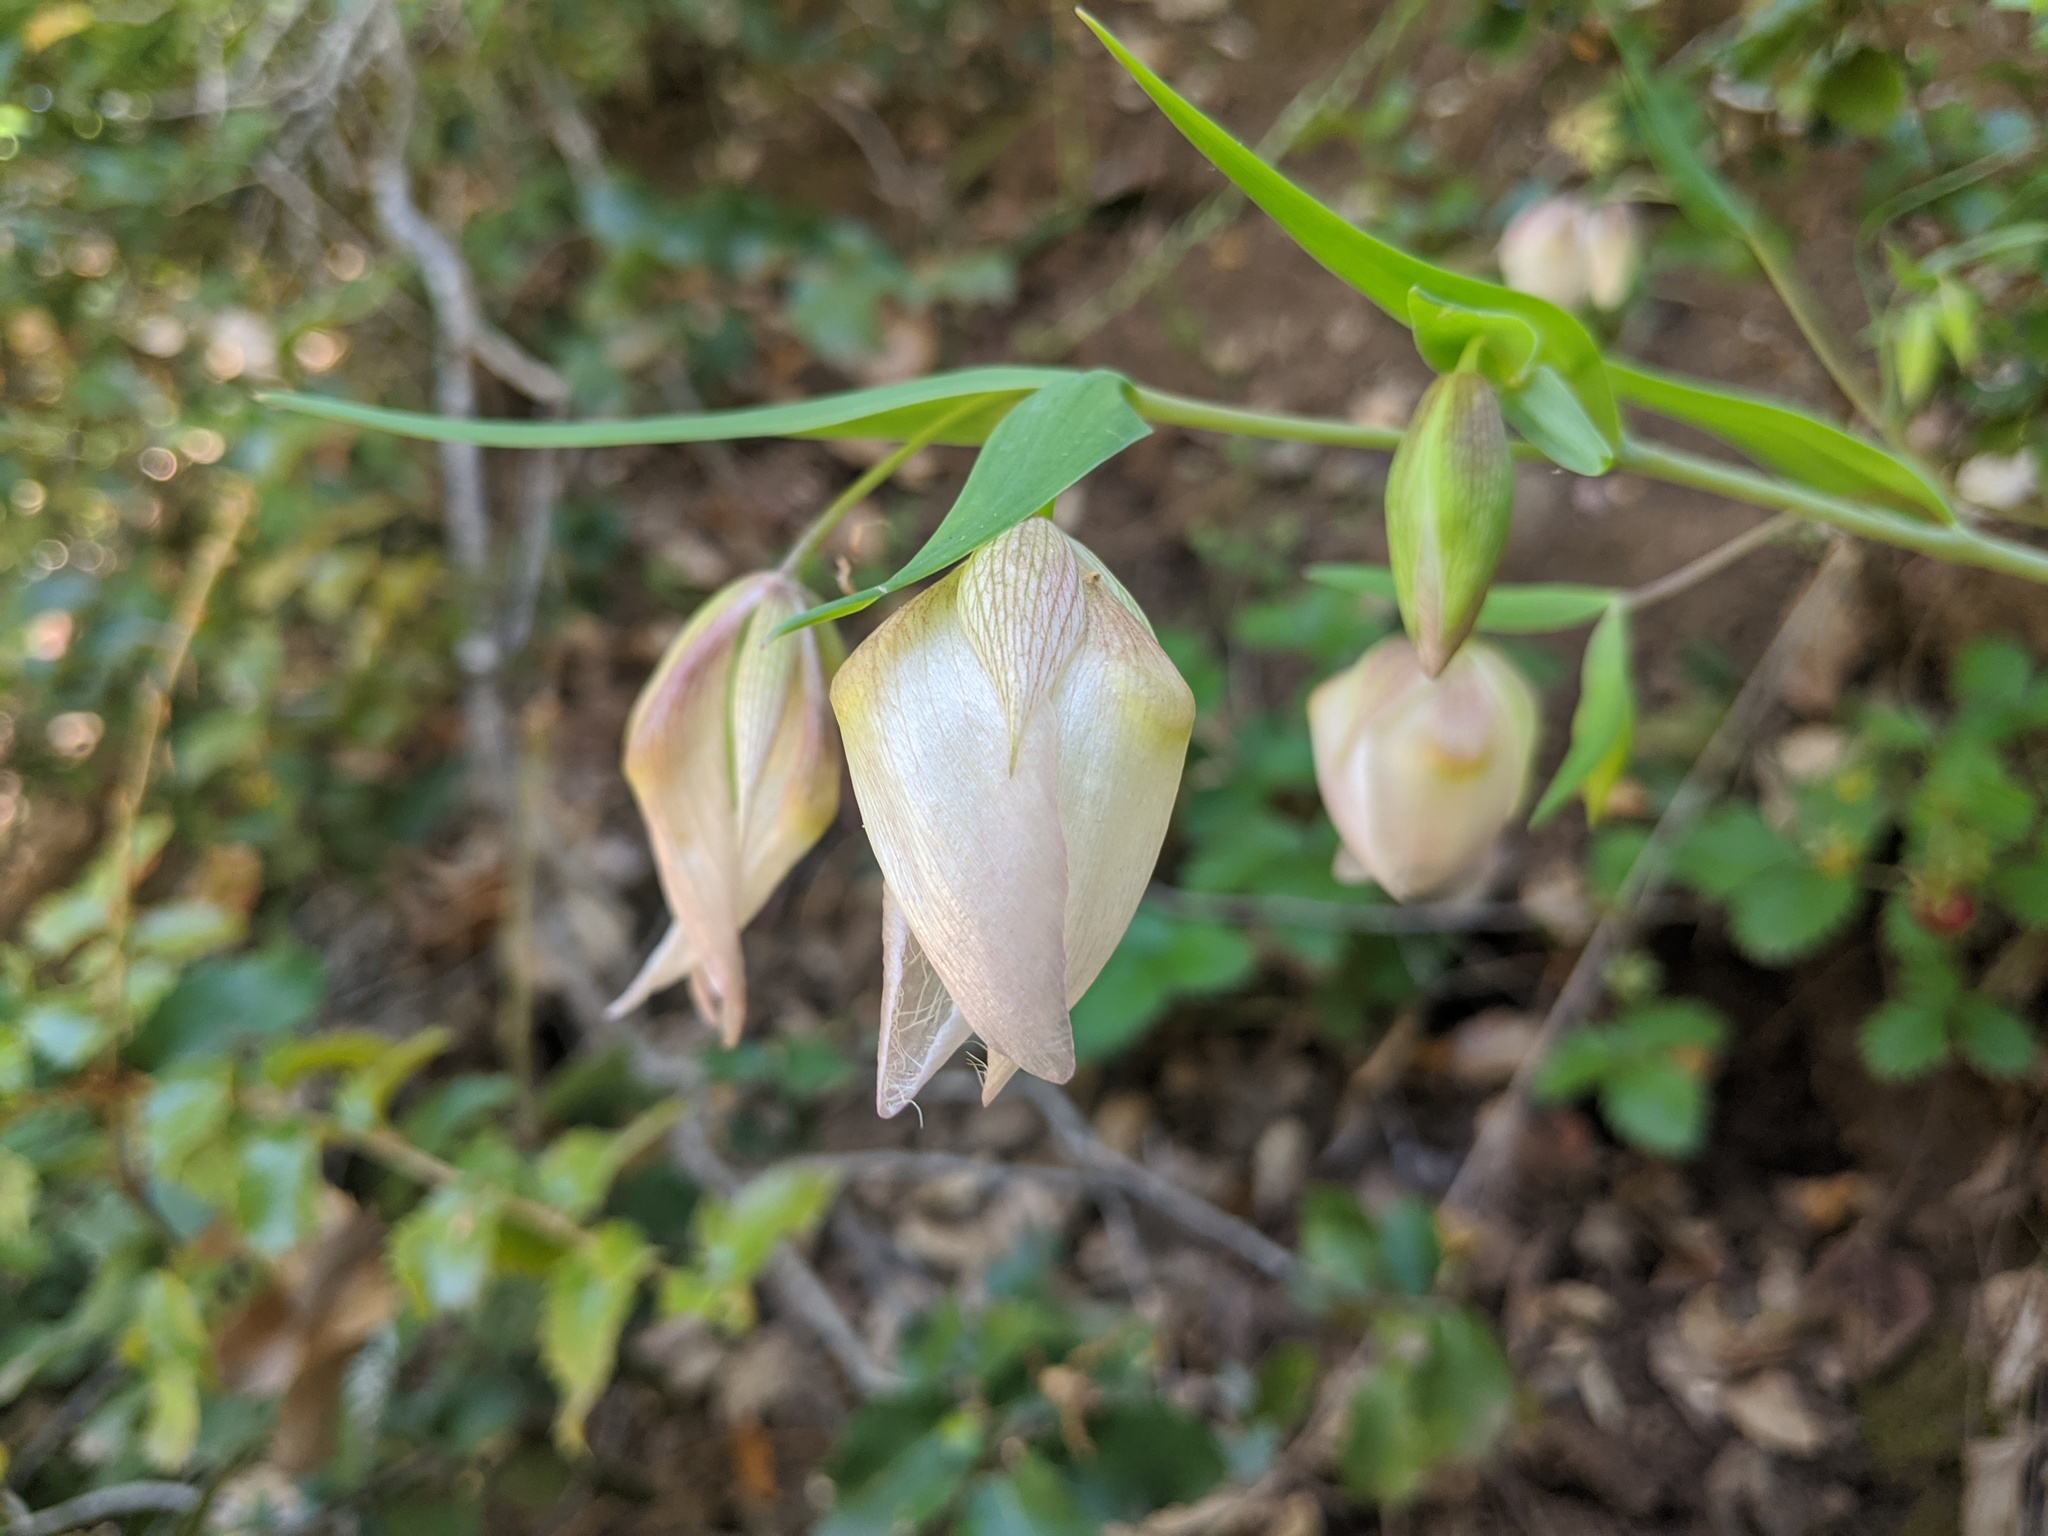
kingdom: Plantae
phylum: Tracheophyta
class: Liliopsida
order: Liliales
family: Liliaceae
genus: Calochortus
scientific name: Calochortus albus
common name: Fairy-lantern
